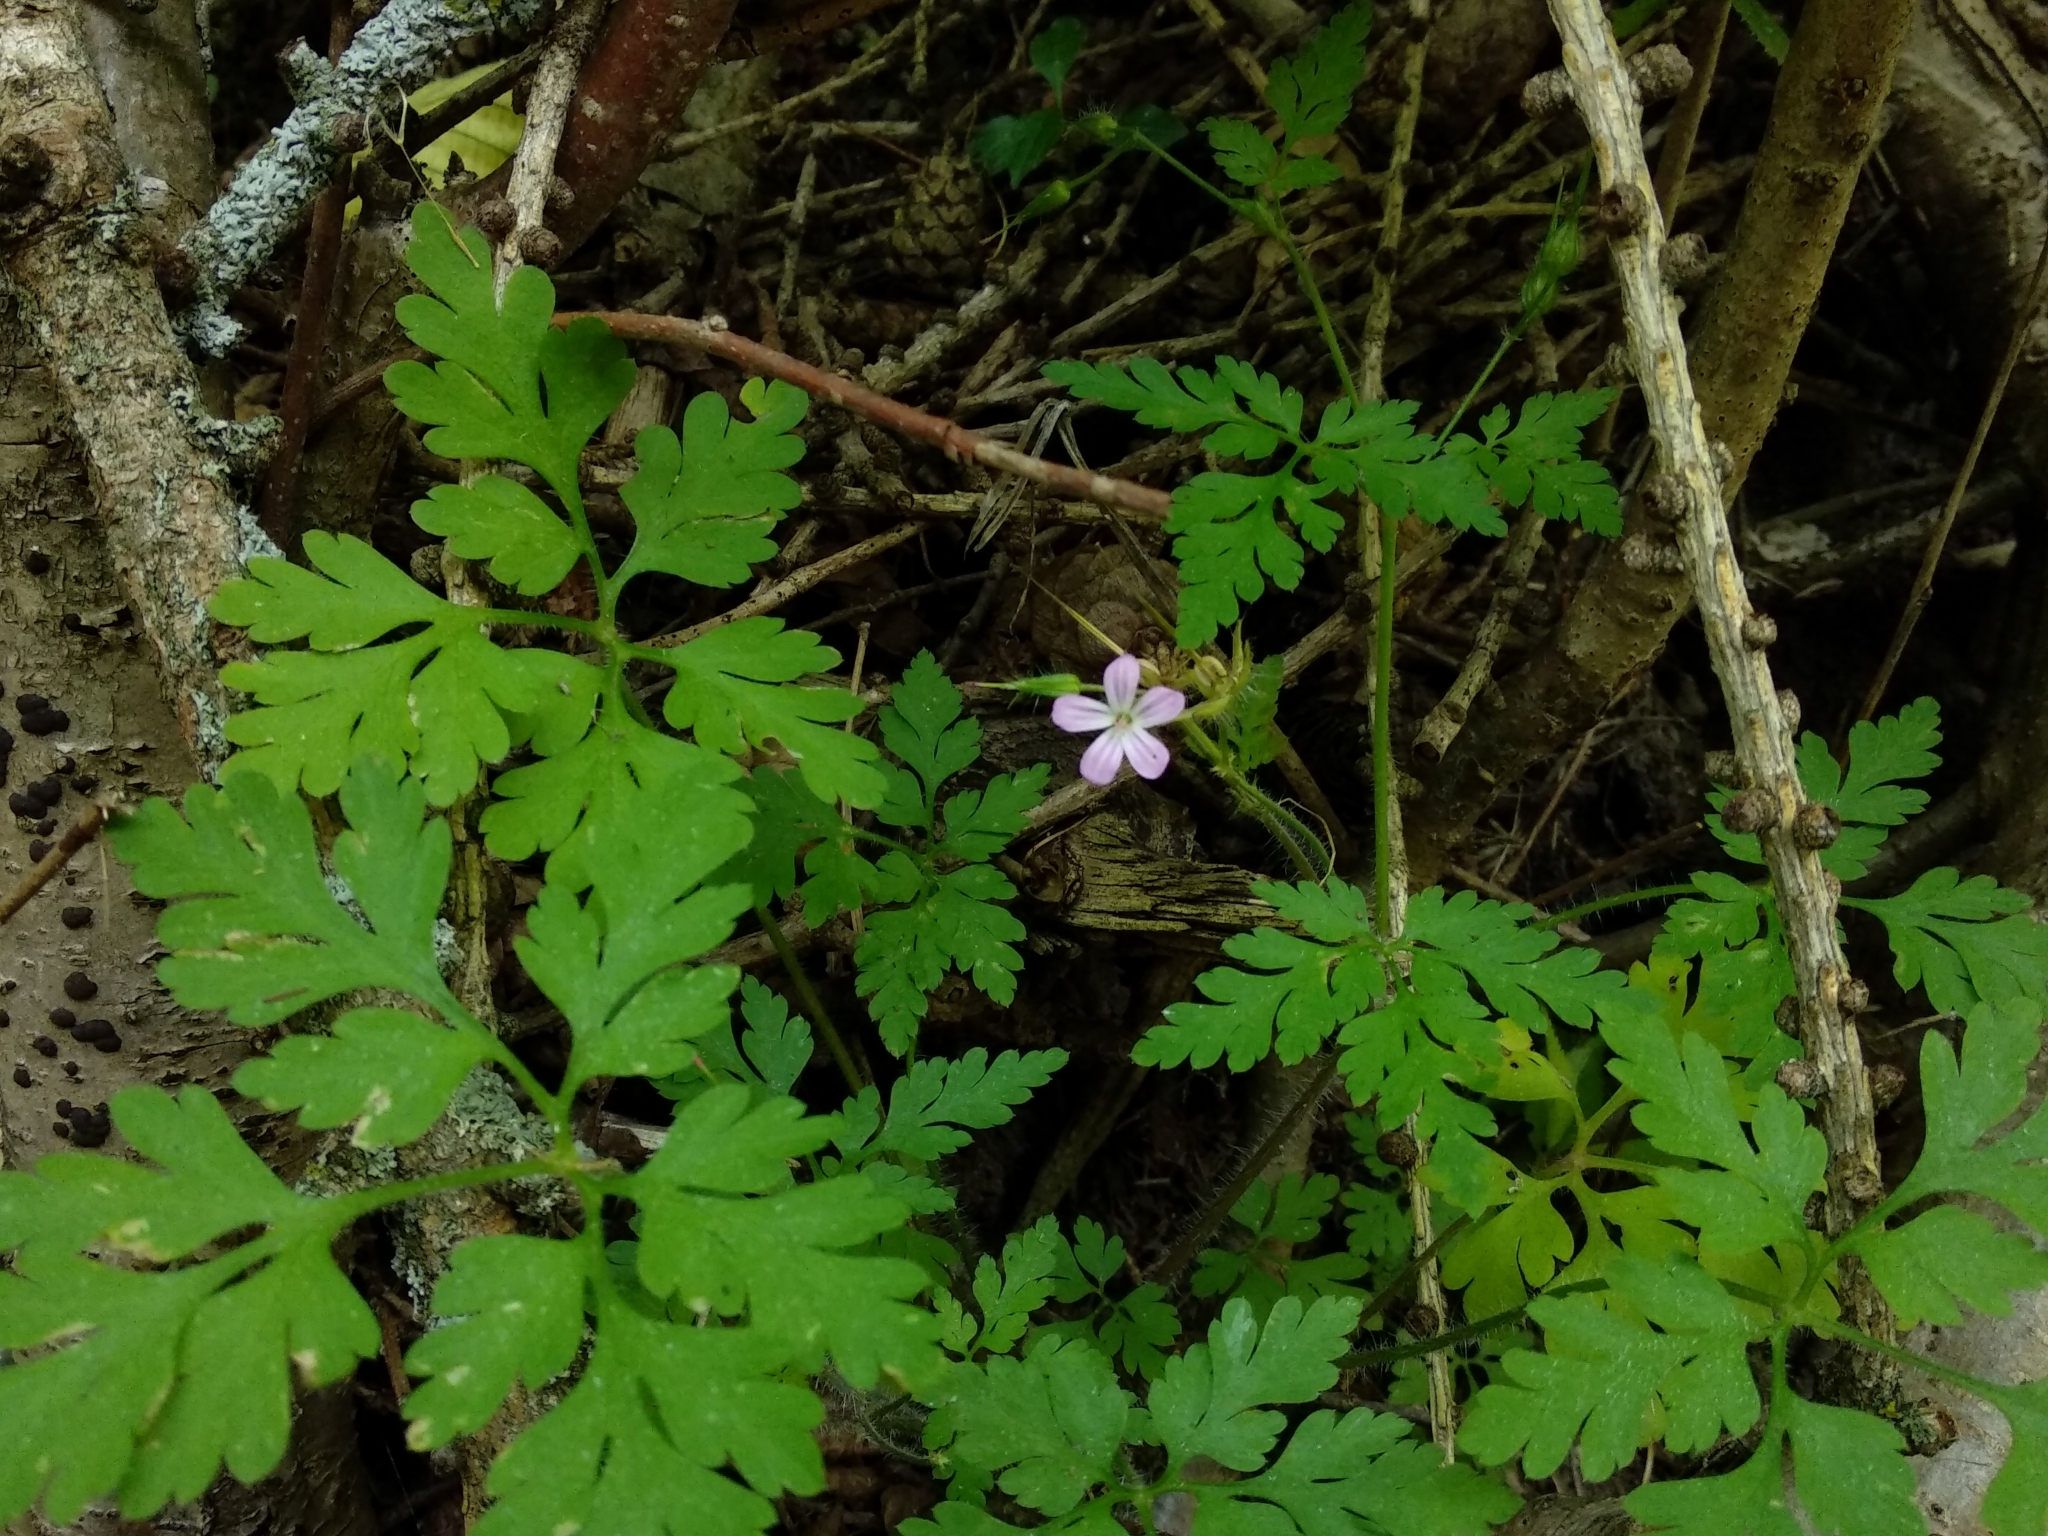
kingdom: Plantae
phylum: Tracheophyta
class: Magnoliopsida
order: Geraniales
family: Geraniaceae
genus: Geranium
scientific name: Geranium robertianum
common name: Herb-robert
